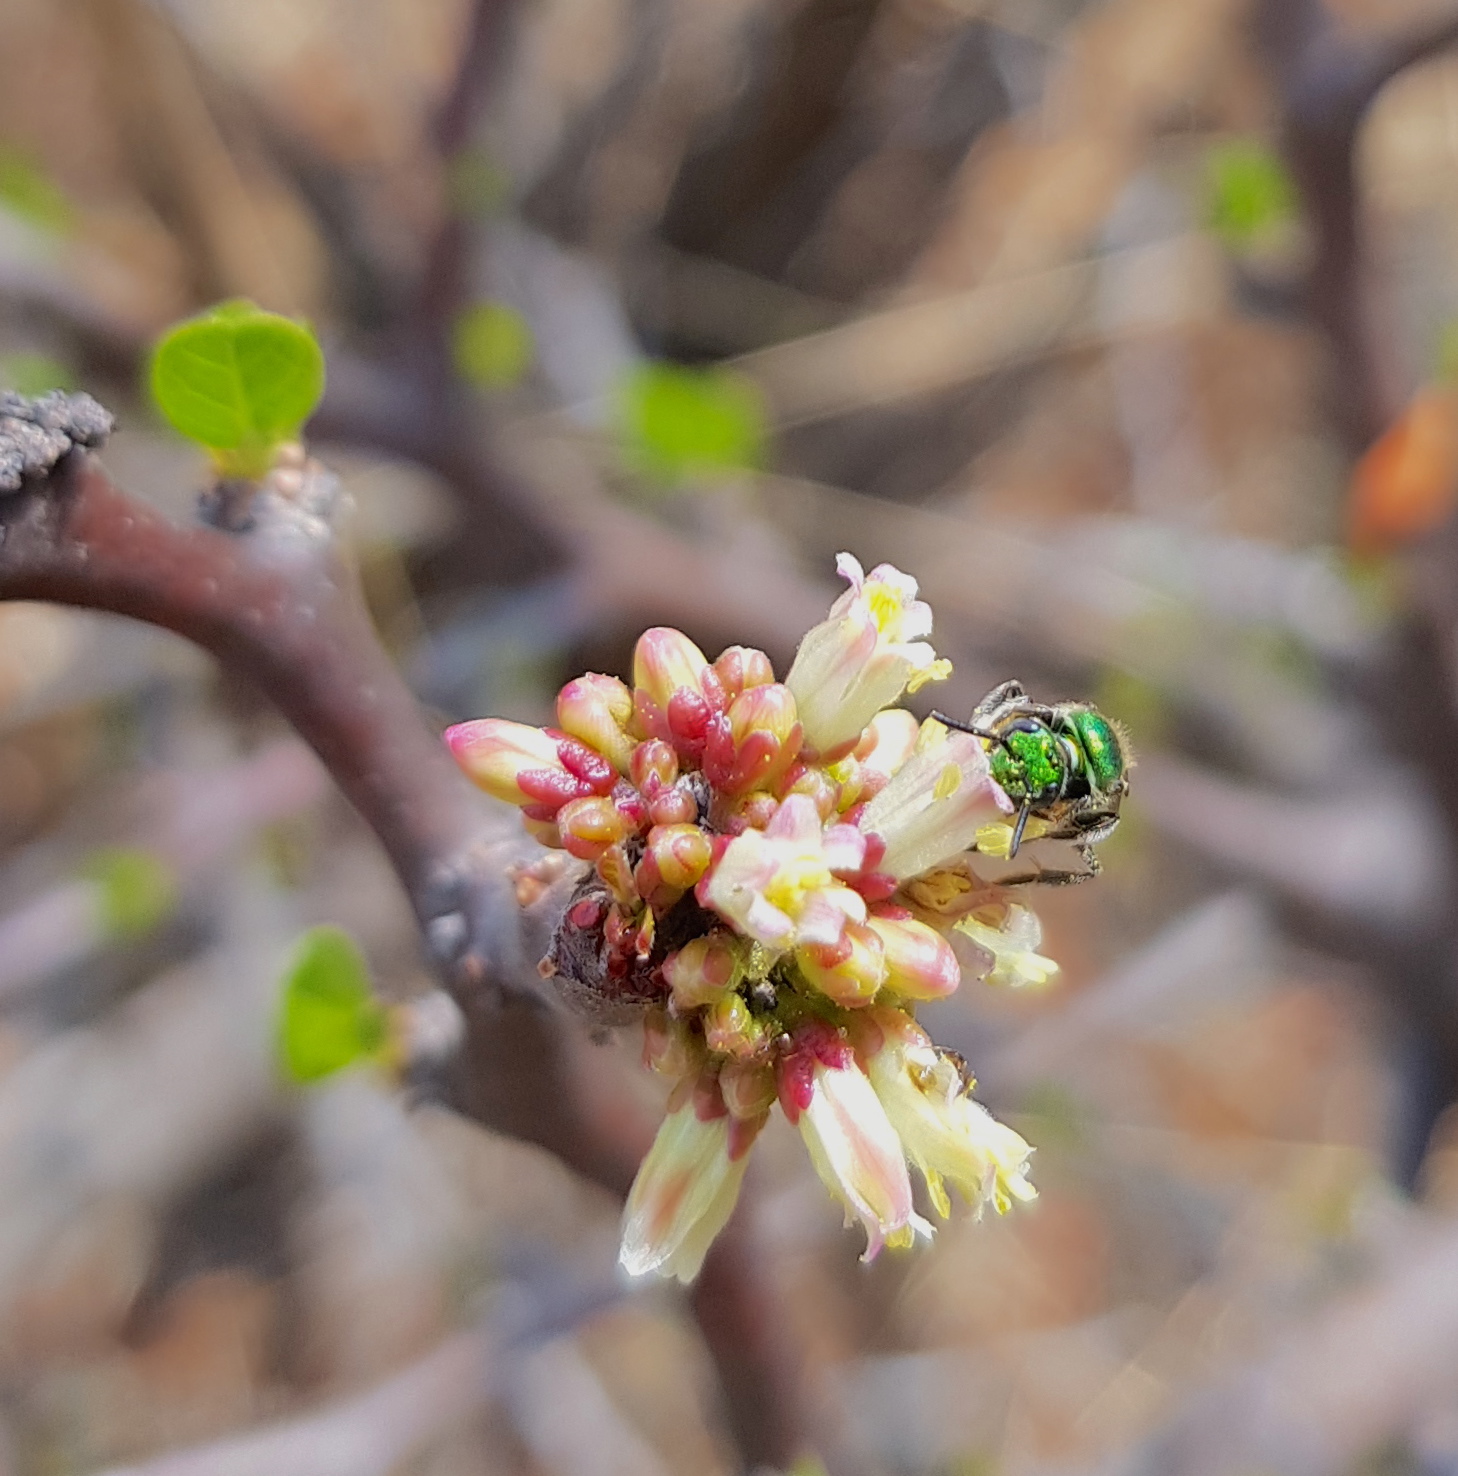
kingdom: Plantae
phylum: Tracheophyta
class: Magnoliopsida
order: Malpighiales
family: Euphorbiaceae
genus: Jatropha
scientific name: Jatropha oaxacana
